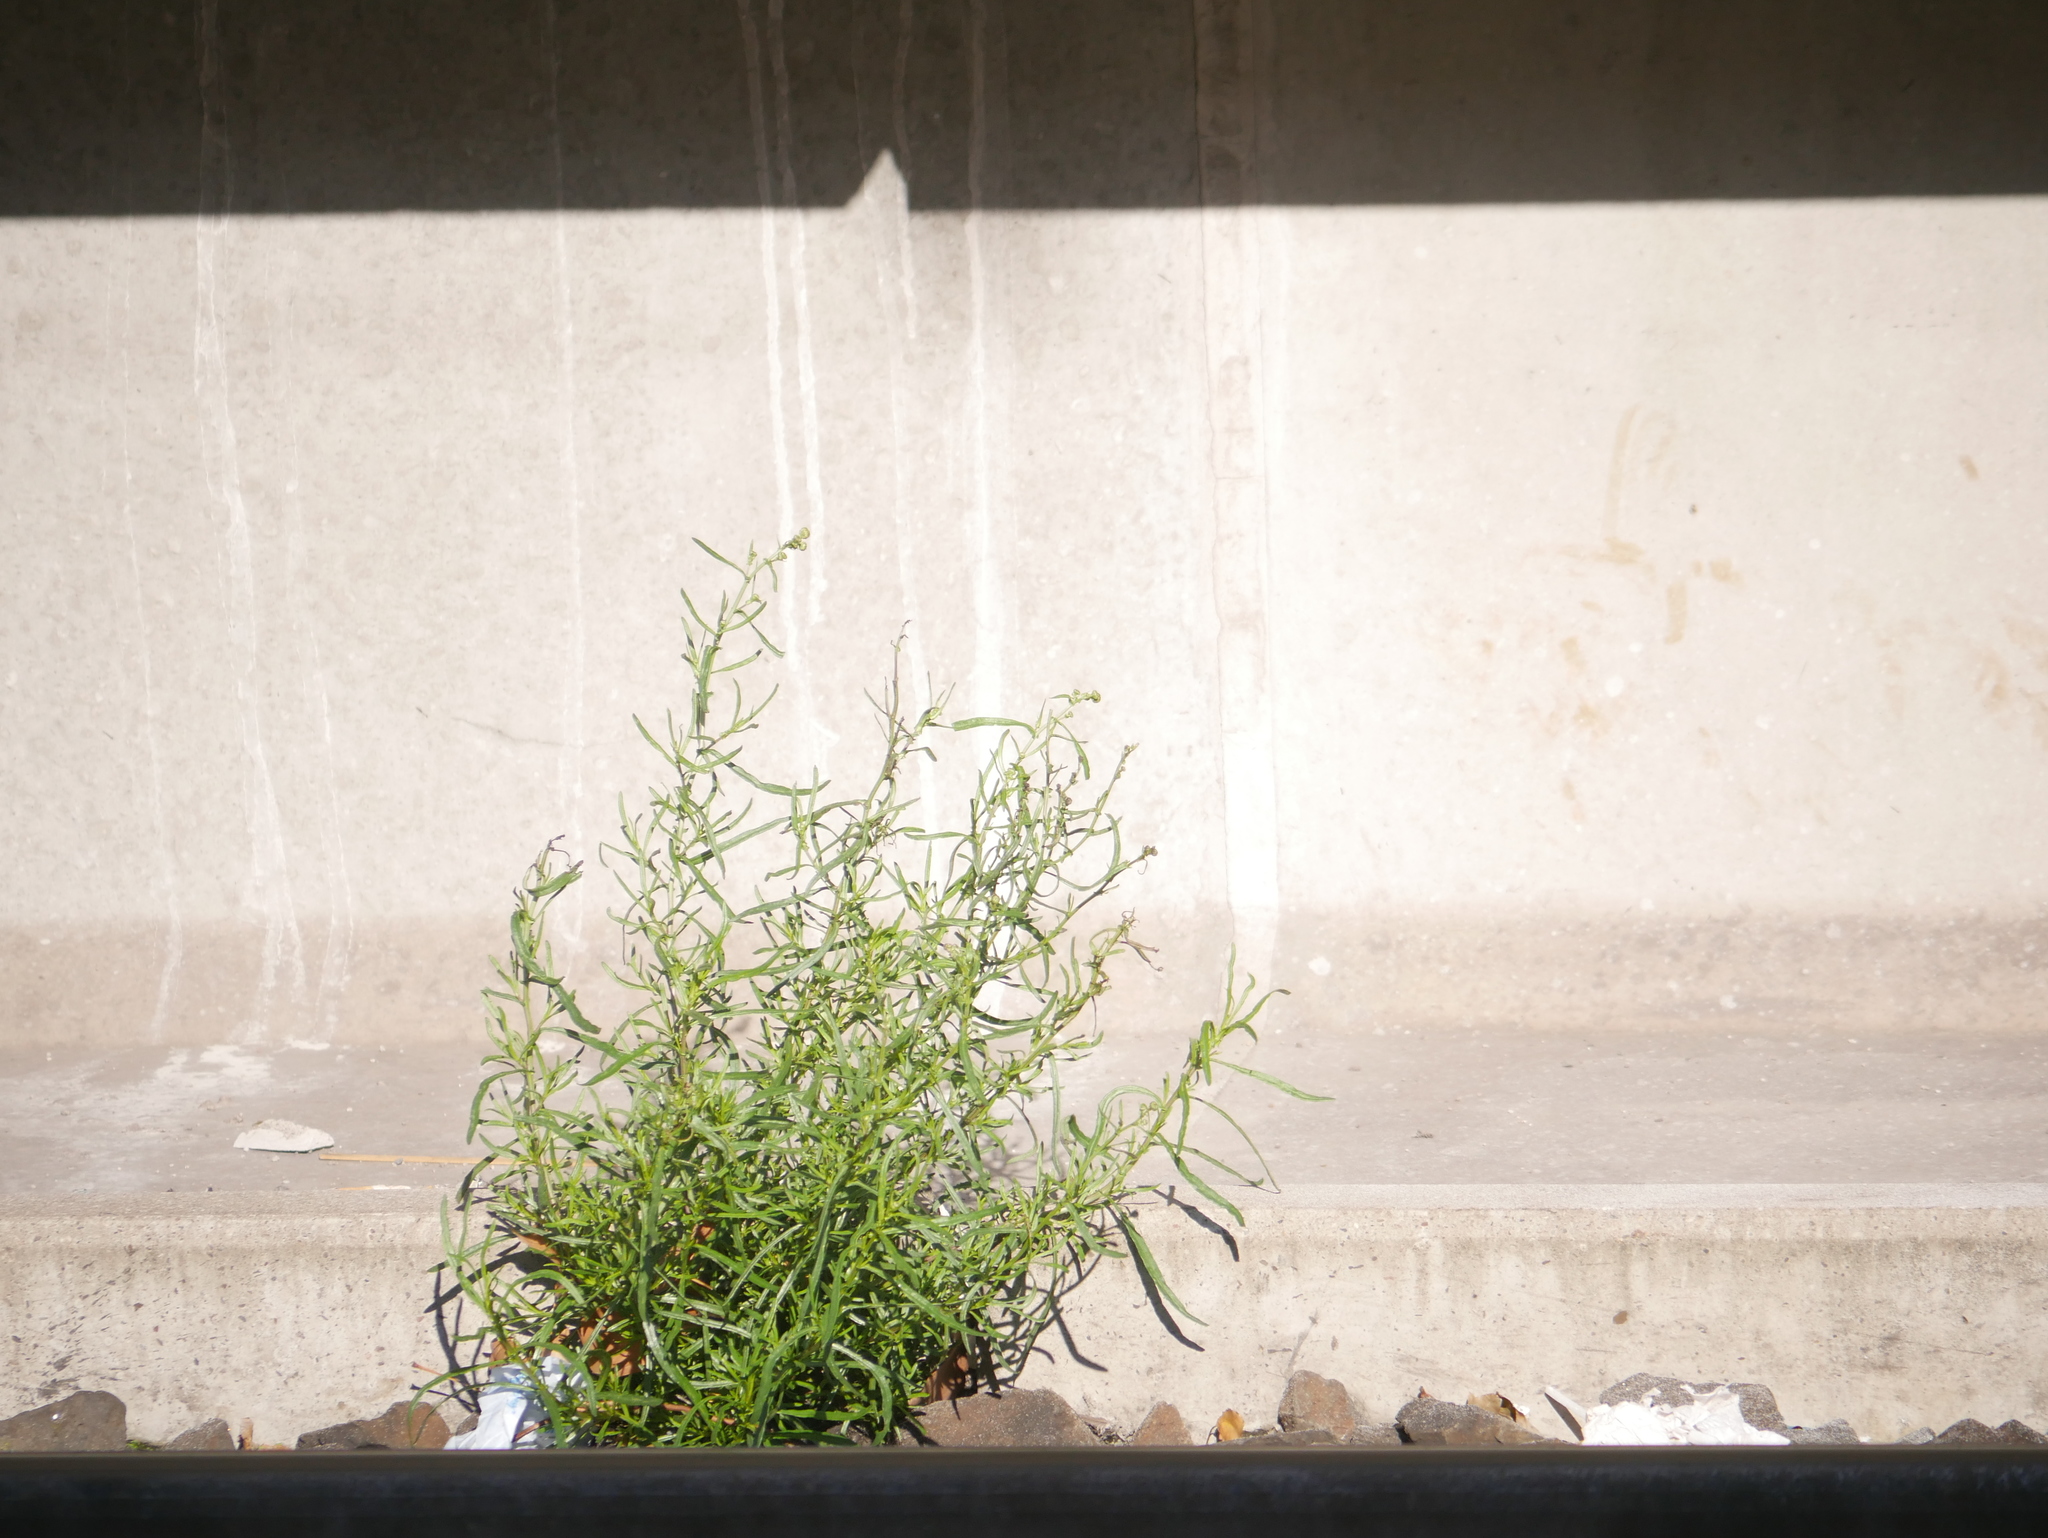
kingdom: Plantae
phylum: Tracheophyta
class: Magnoliopsida
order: Asterales
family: Asteraceae
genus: Senecio
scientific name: Senecio inaequidens
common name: Narrow-leaved ragwort
